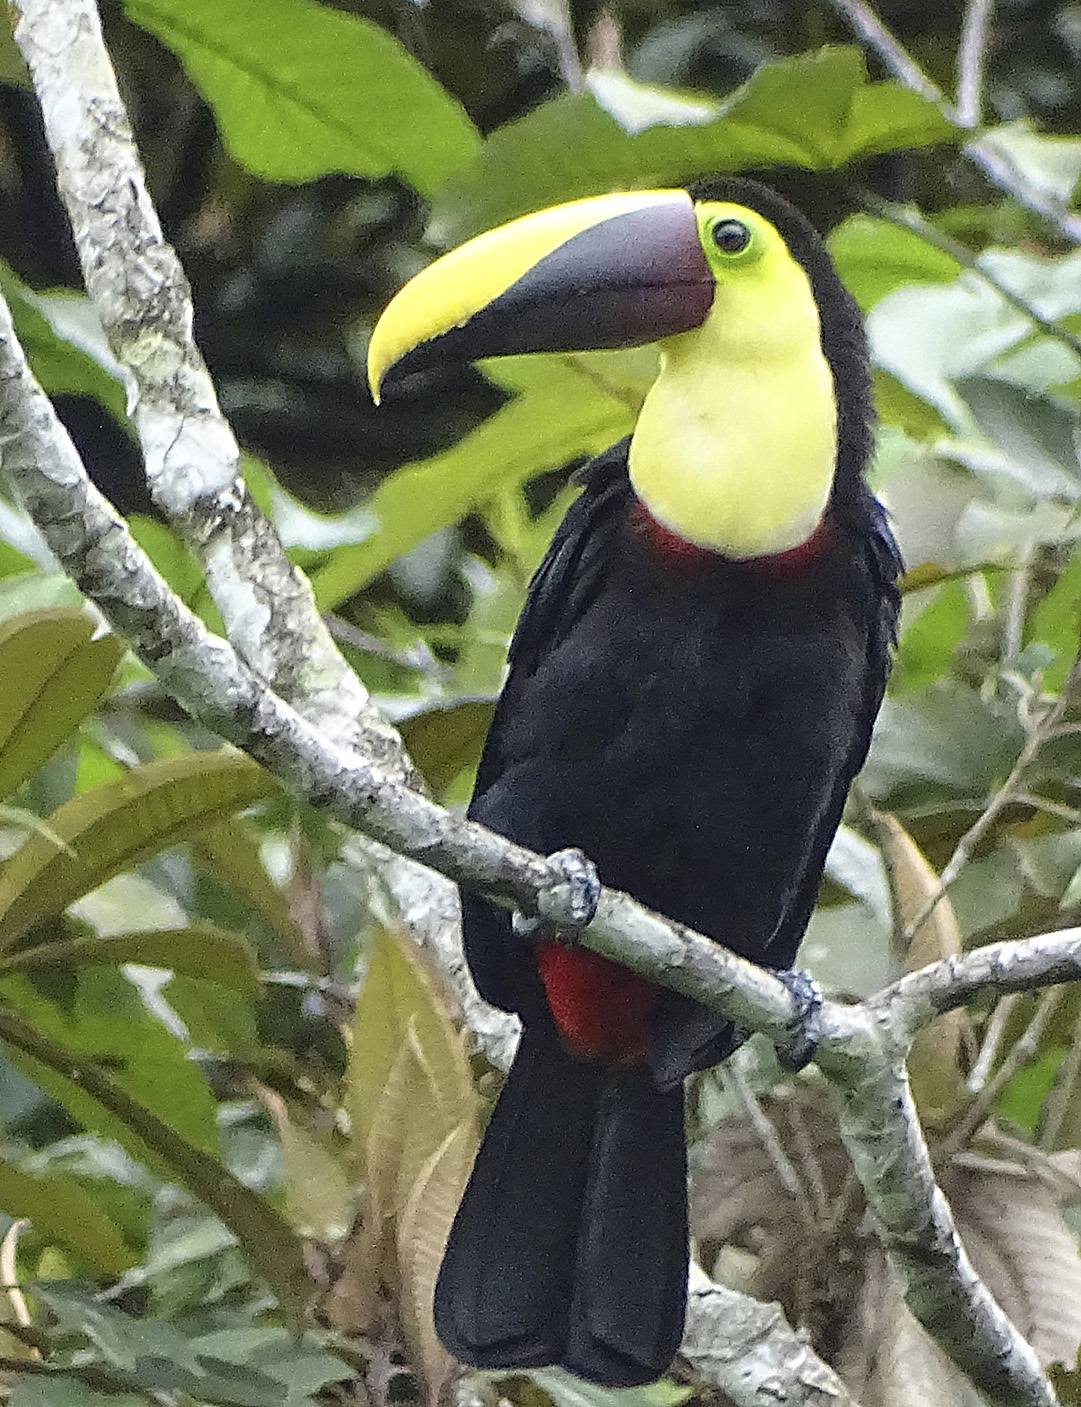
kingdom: Animalia
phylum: Chordata
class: Aves
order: Piciformes
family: Ramphastidae
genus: Ramphastos
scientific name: Ramphastos ambiguus
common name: Yellow-throated toucan
